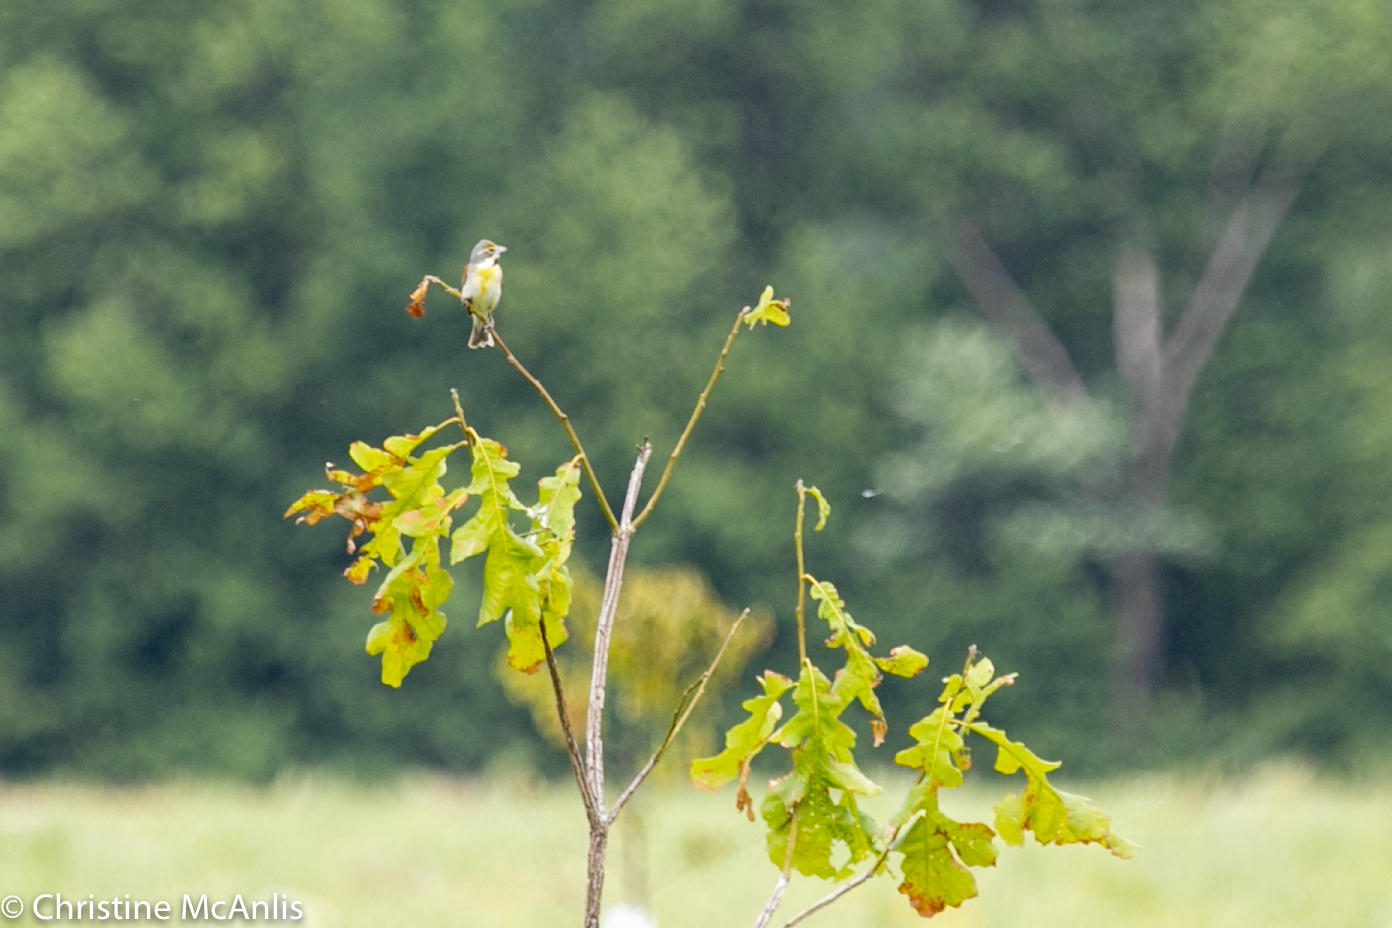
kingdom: Animalia
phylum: Chordata
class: Aves
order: Passeriformes
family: Cardinalidae
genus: Spiza
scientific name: Spiza americana
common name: Dickcissel
